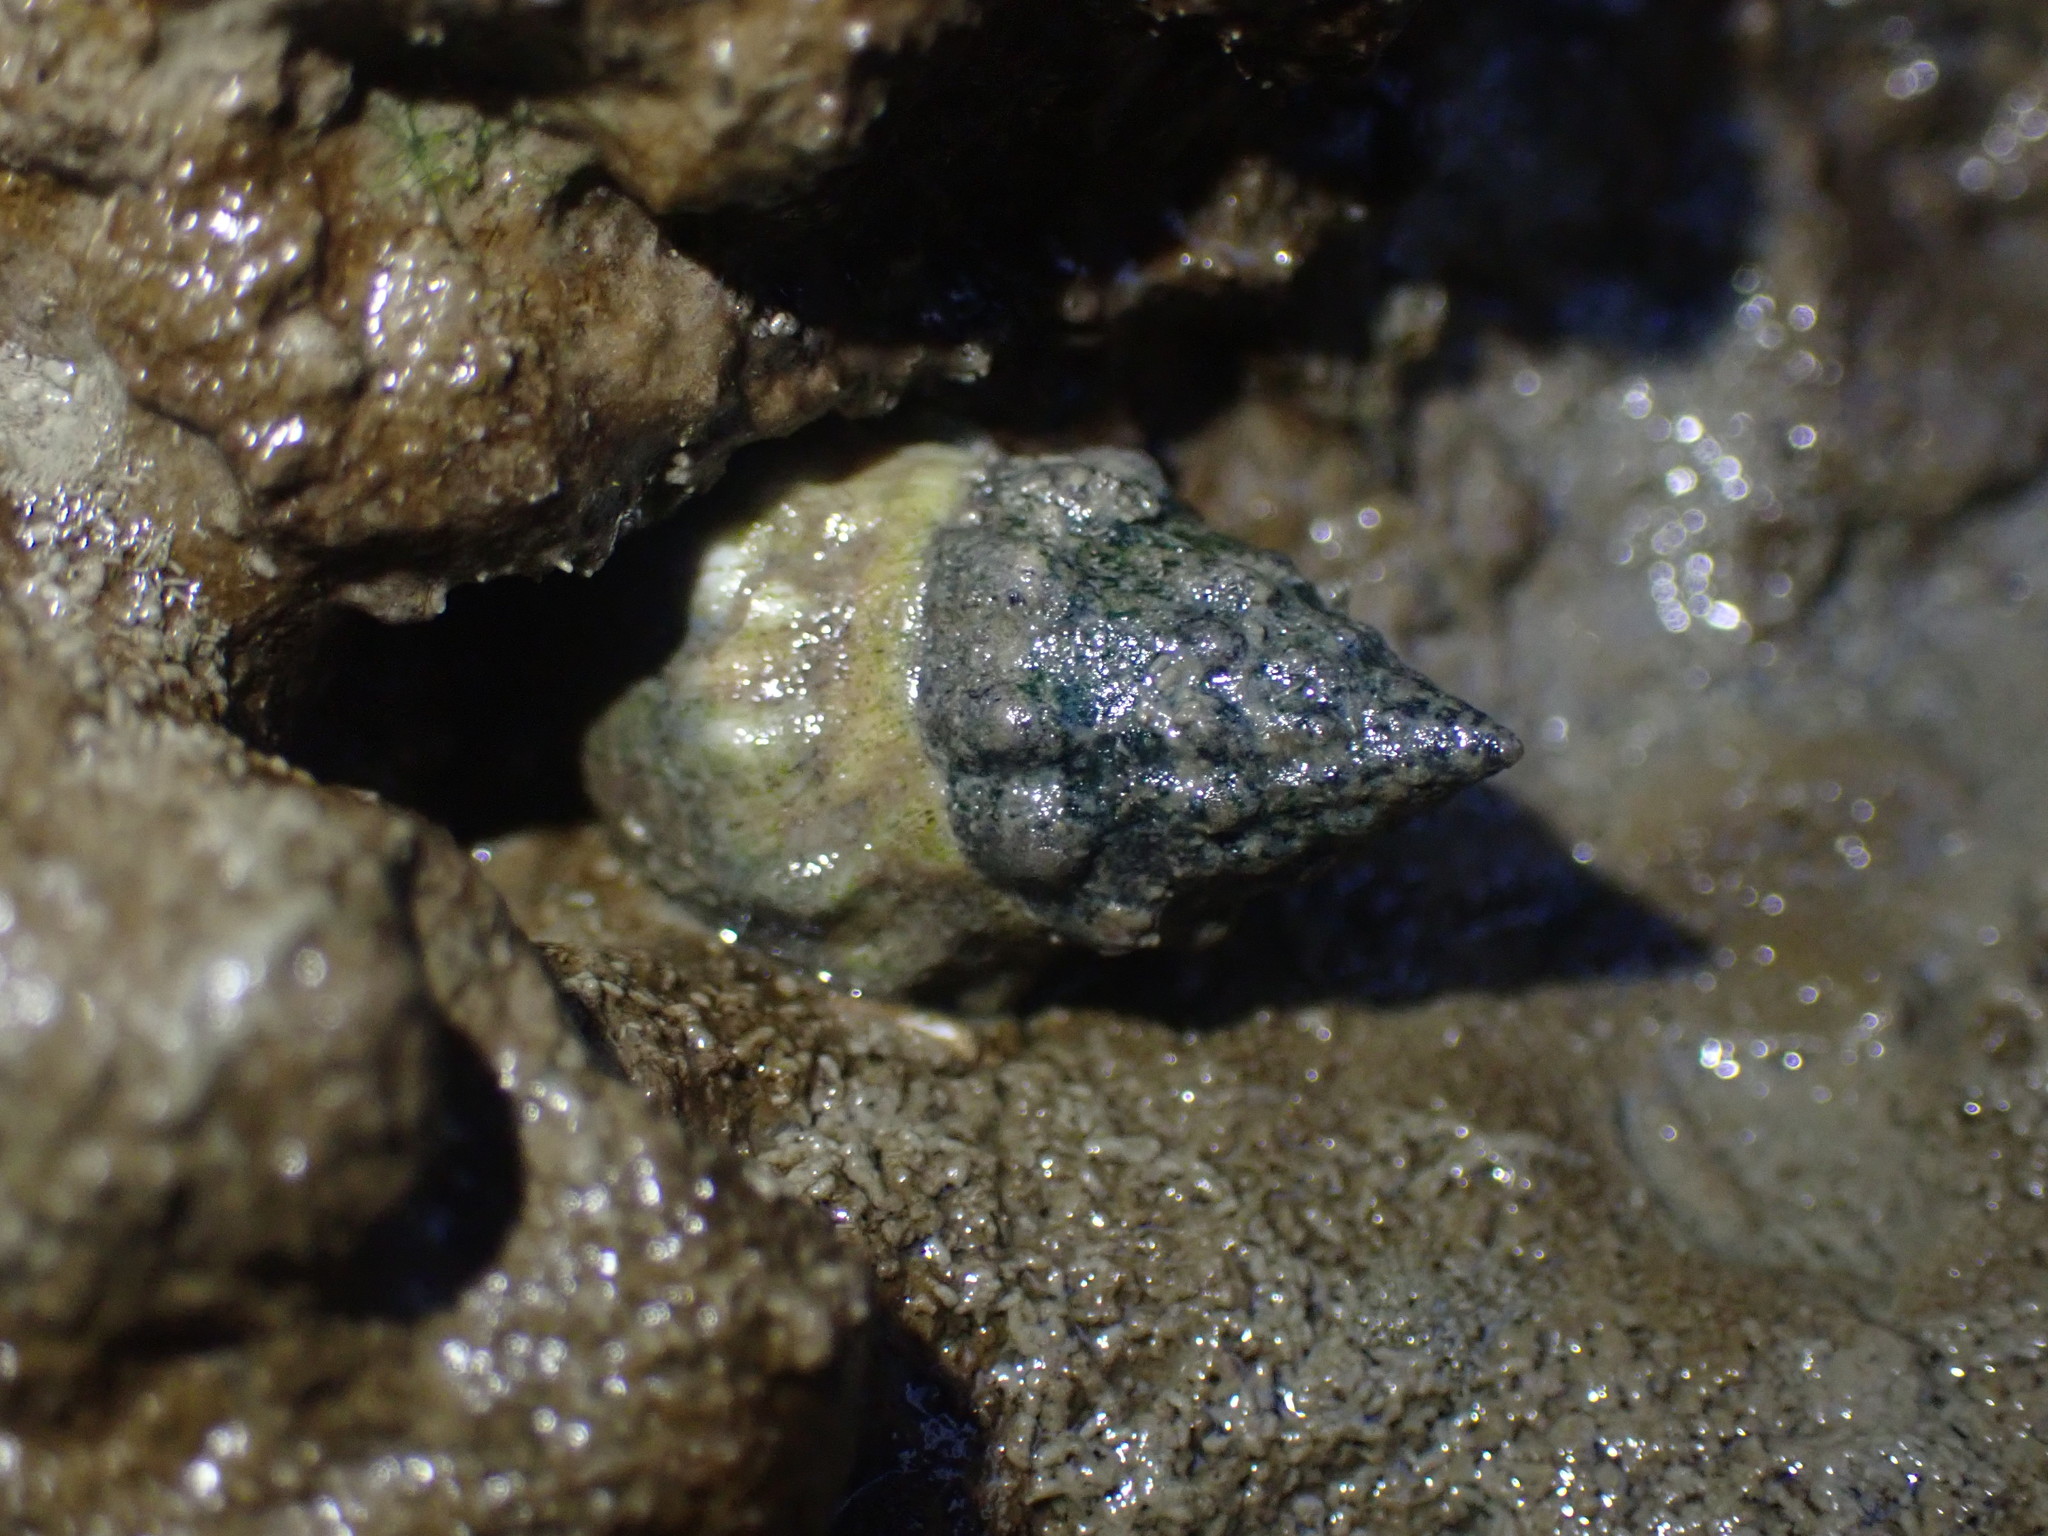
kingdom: Animalia
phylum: Mollusca
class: Gastropoda
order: Neogastropoda
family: Cominellidae
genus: Cominella
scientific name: Cominella glandiformis
